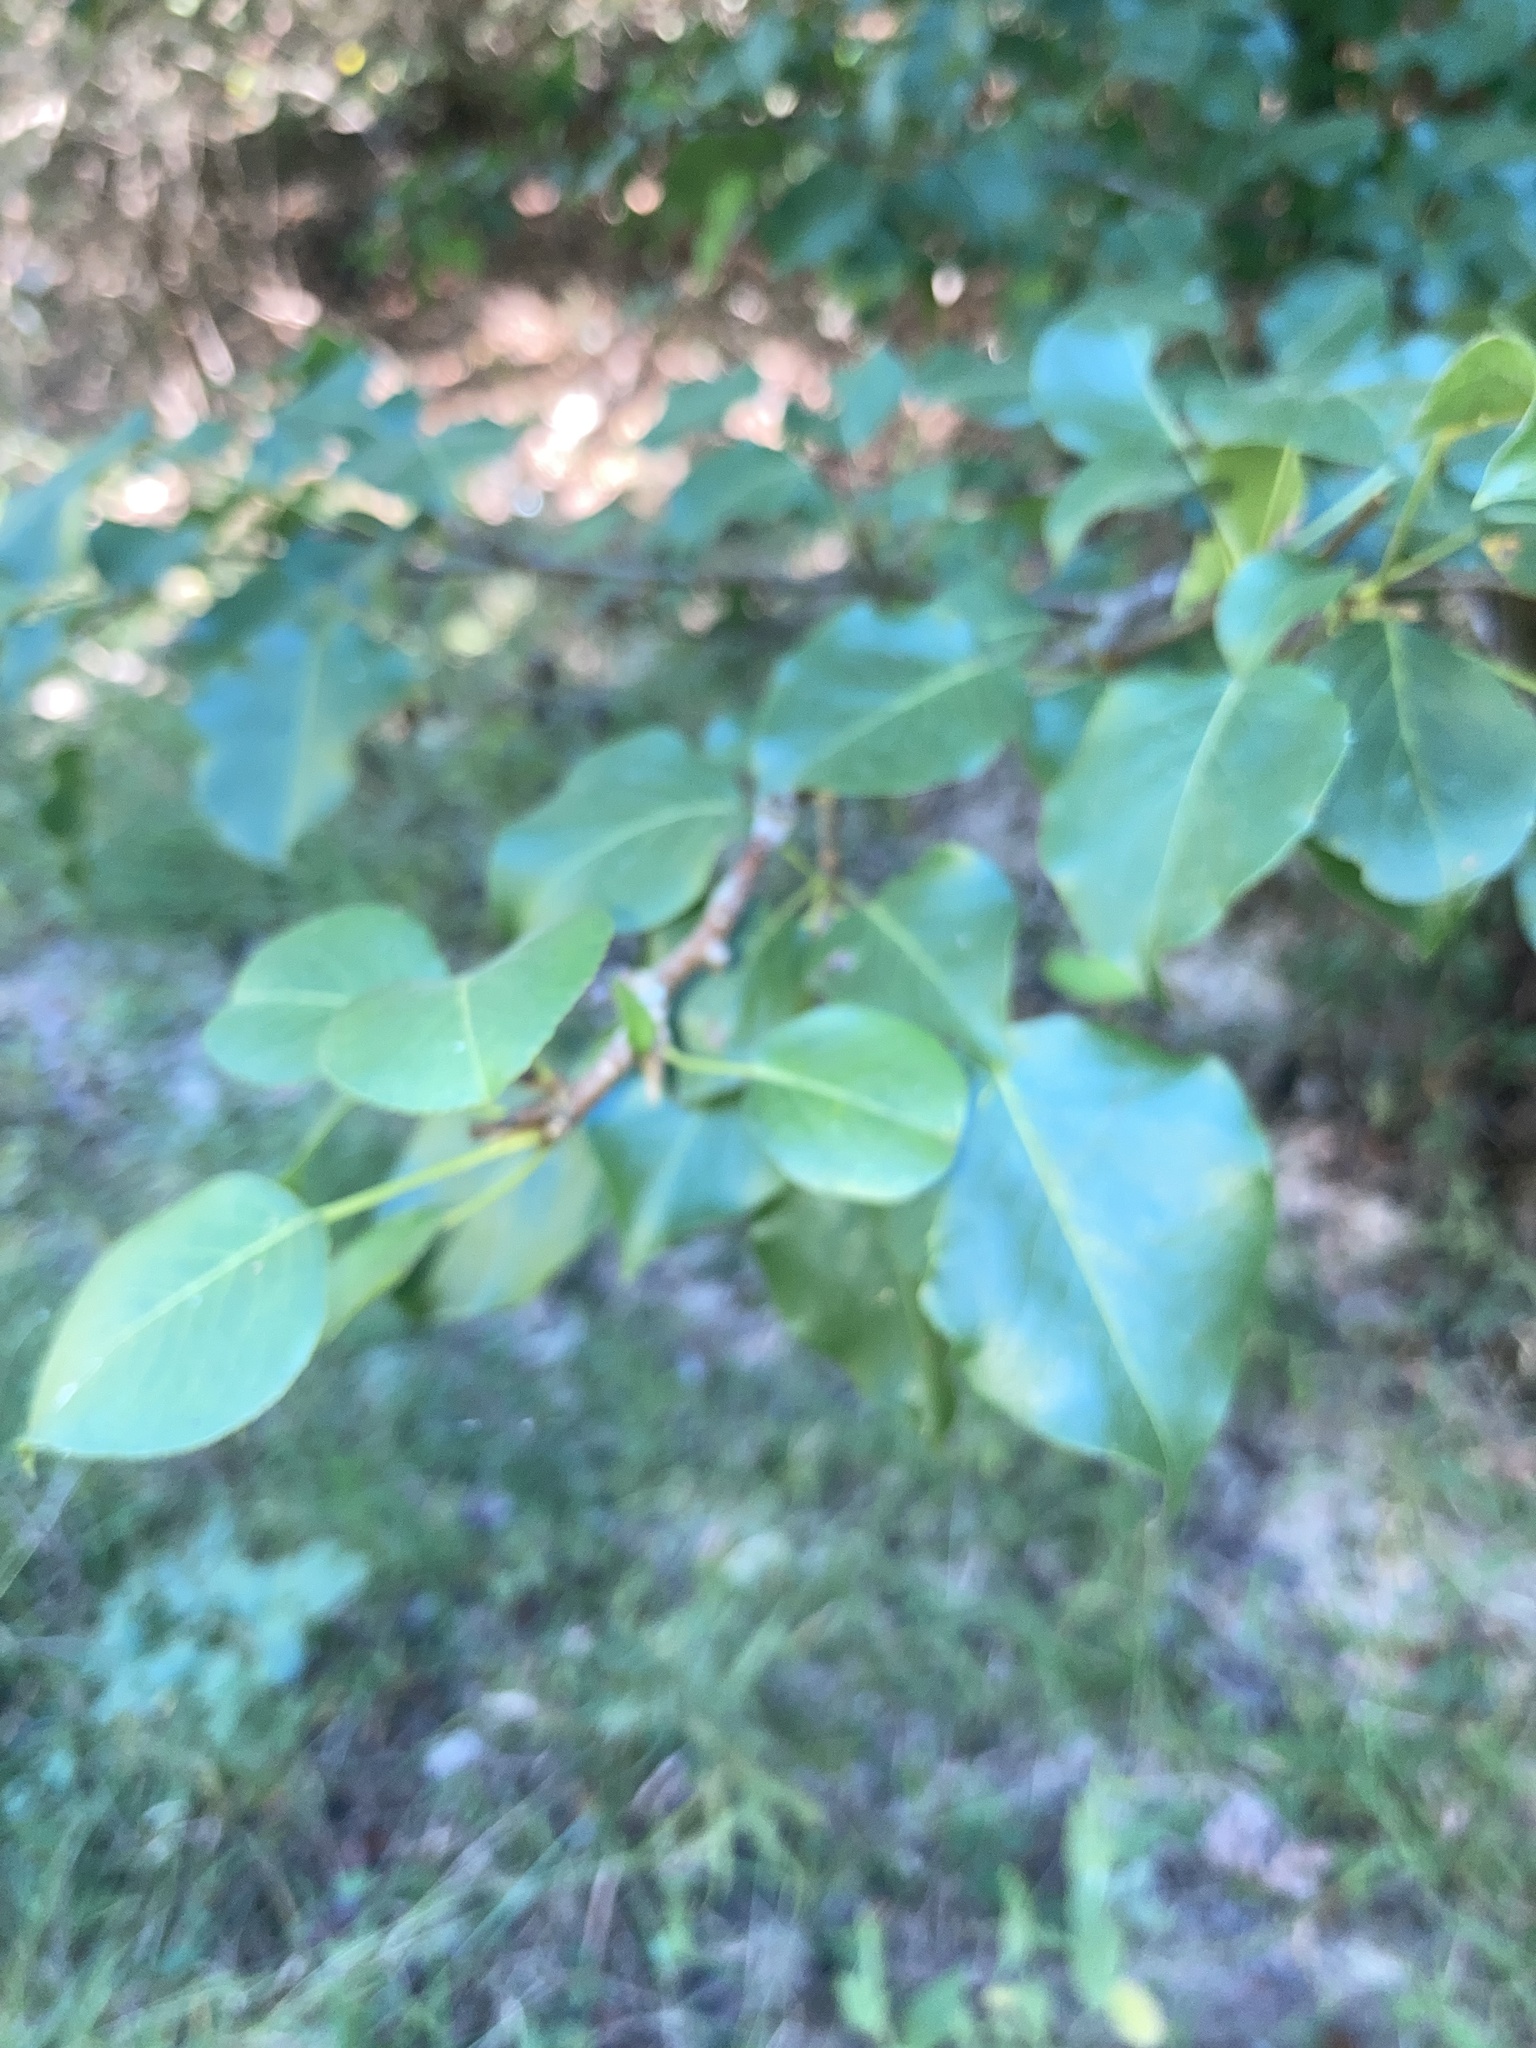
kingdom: Plantae
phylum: Tracheophyta
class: Magnoliopsida
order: Rosales
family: Rosaceae
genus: Pyrus
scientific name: Pyrus calleryana
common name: Callery pear
